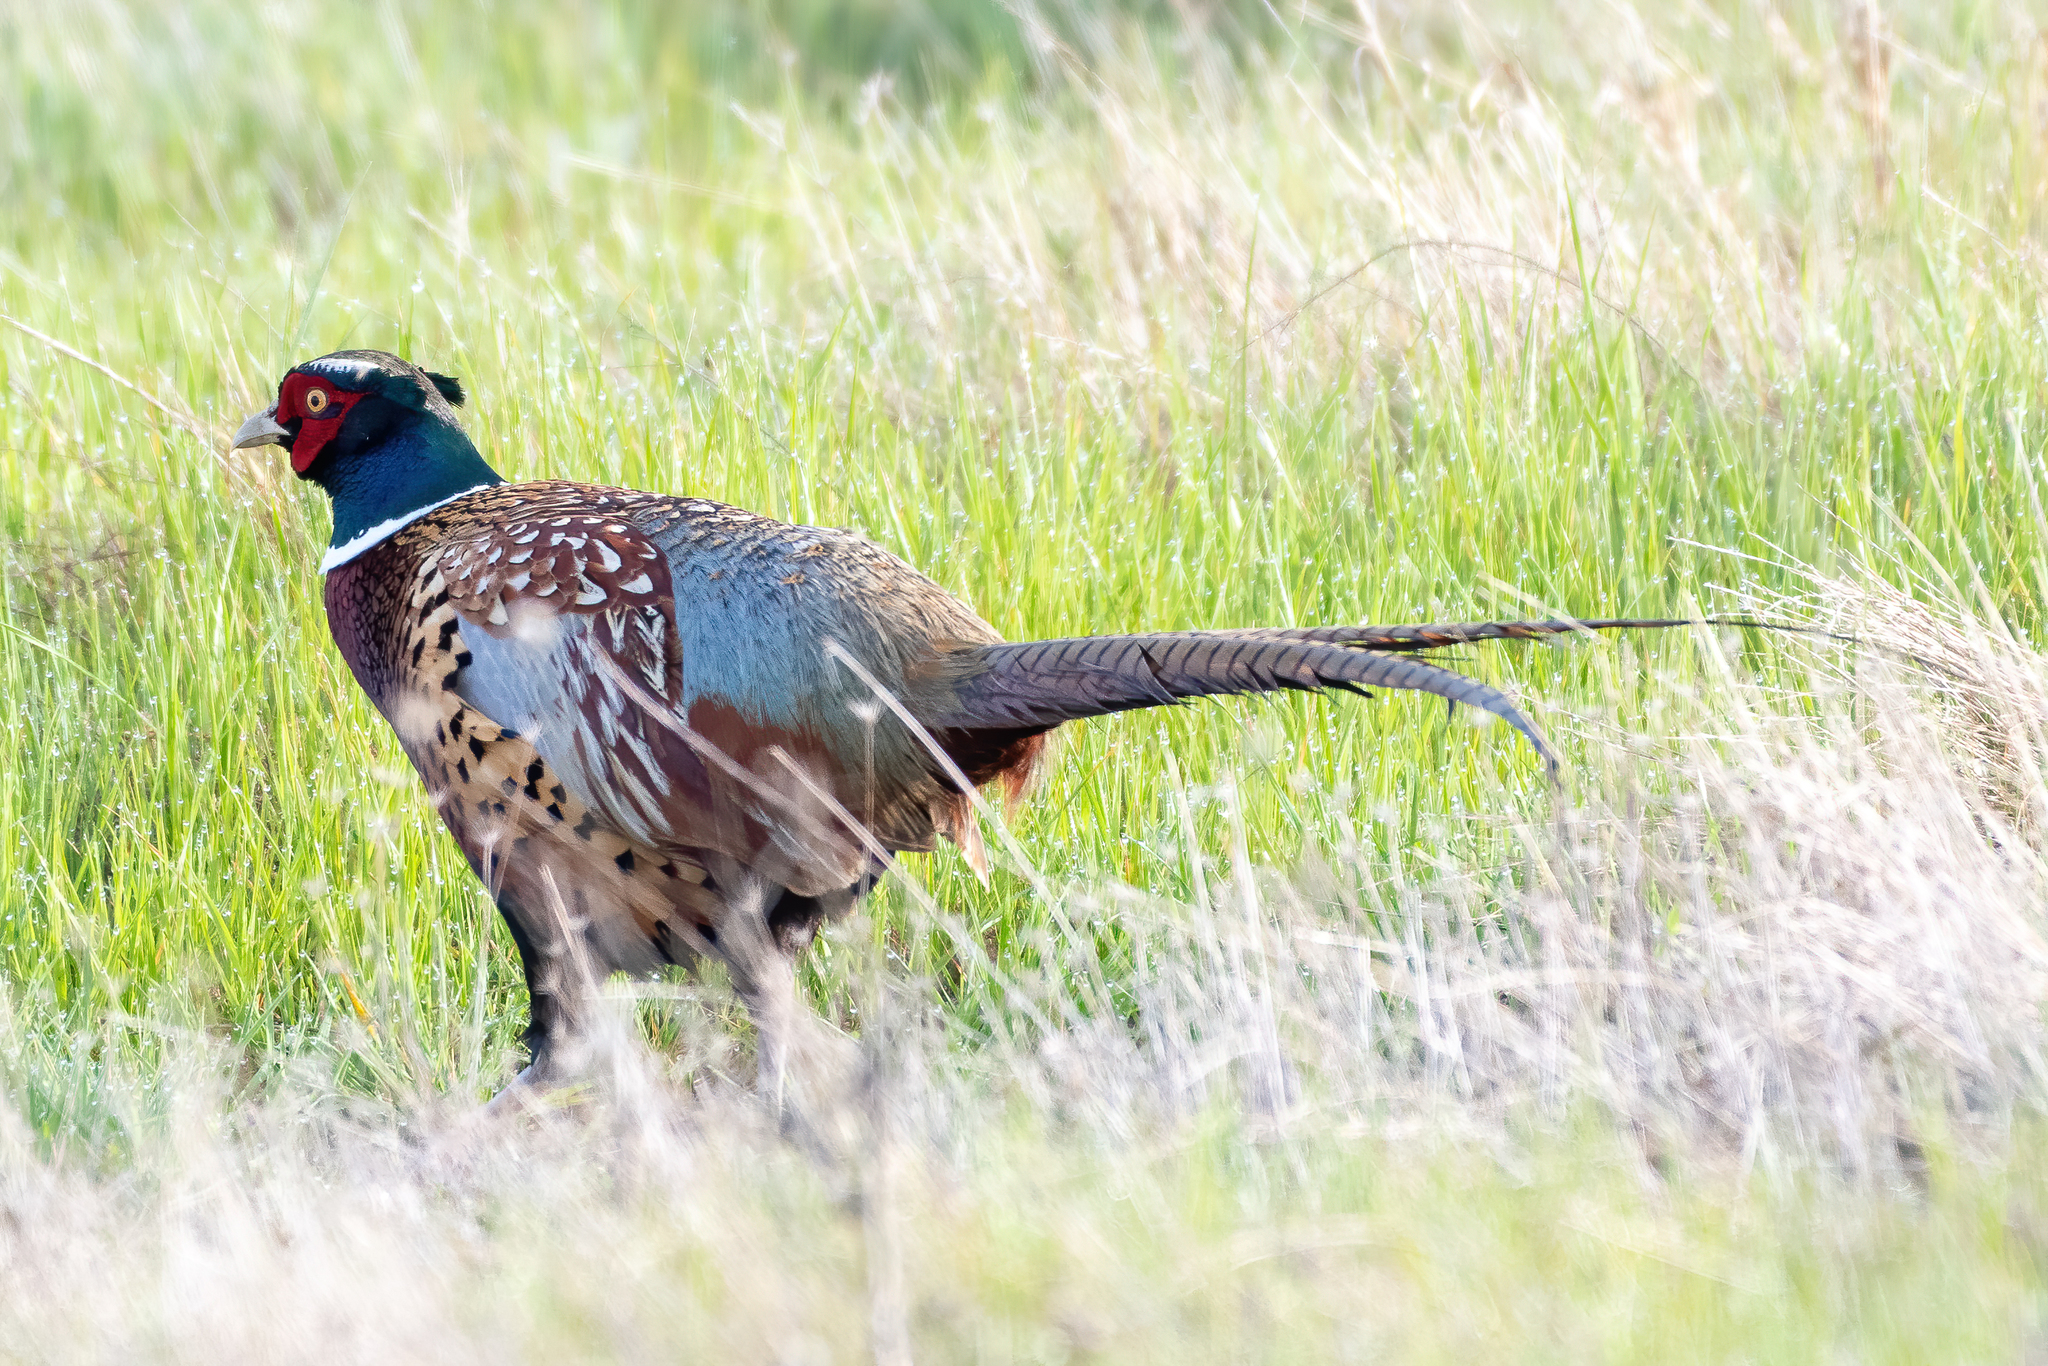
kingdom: Animalia
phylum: Chordata
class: Aves
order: Galliformes
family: Phasianidae
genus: Phasianus
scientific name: Phasianus colchicus
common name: Common pheasant
